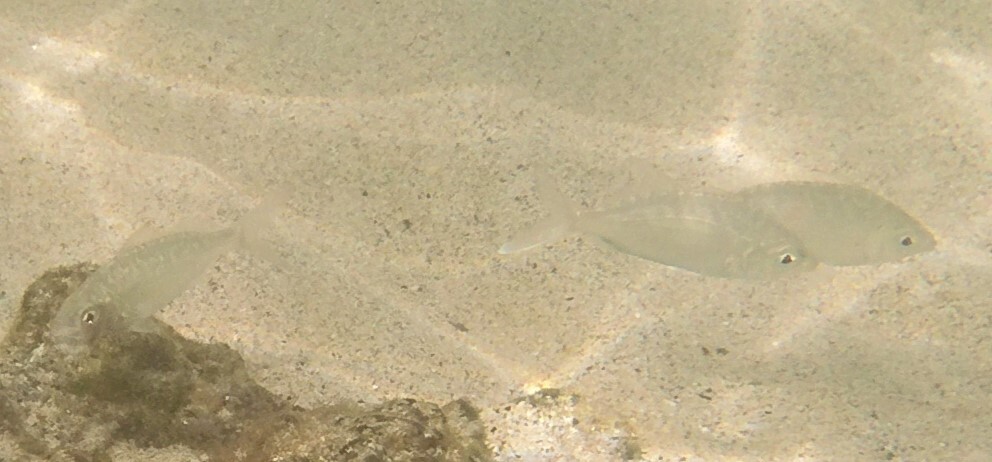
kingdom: Animalia
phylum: Chordata
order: Perciformes
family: Gerreidae
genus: Gerres
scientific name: Gerres simillimus
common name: Yellow fin mojarra
